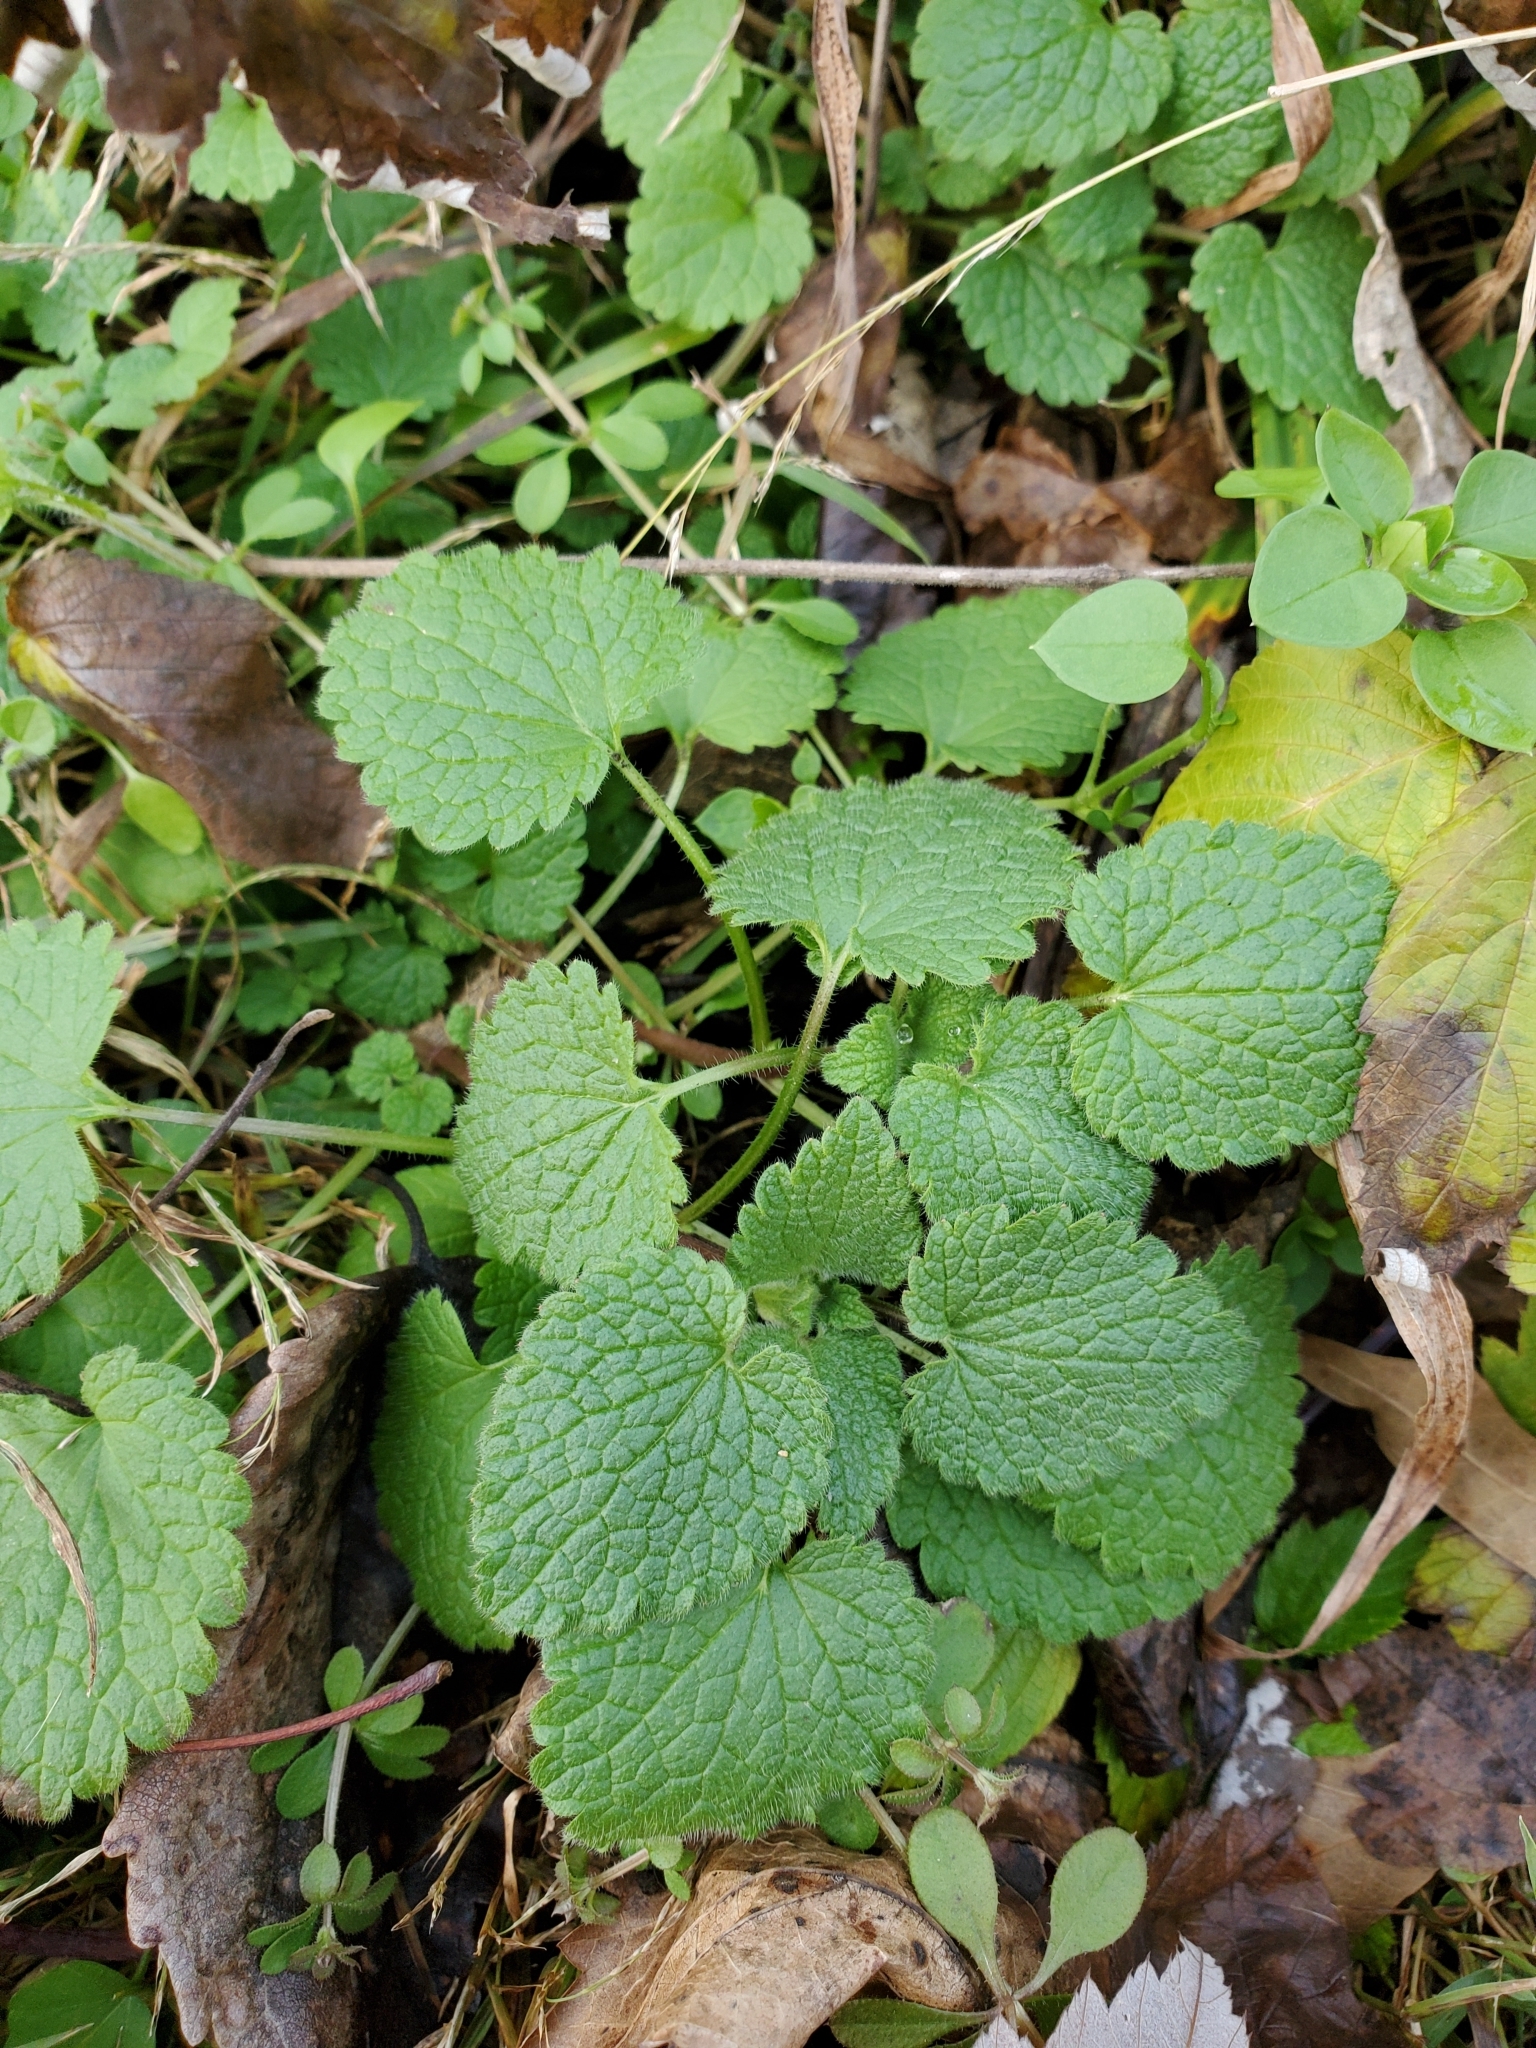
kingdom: Plantae
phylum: Tracheophyta
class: Magnoliopsida
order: Lamiales
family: Lamiaceae
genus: Lamium
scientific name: Lamium purpureum
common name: Red dead-nettle
